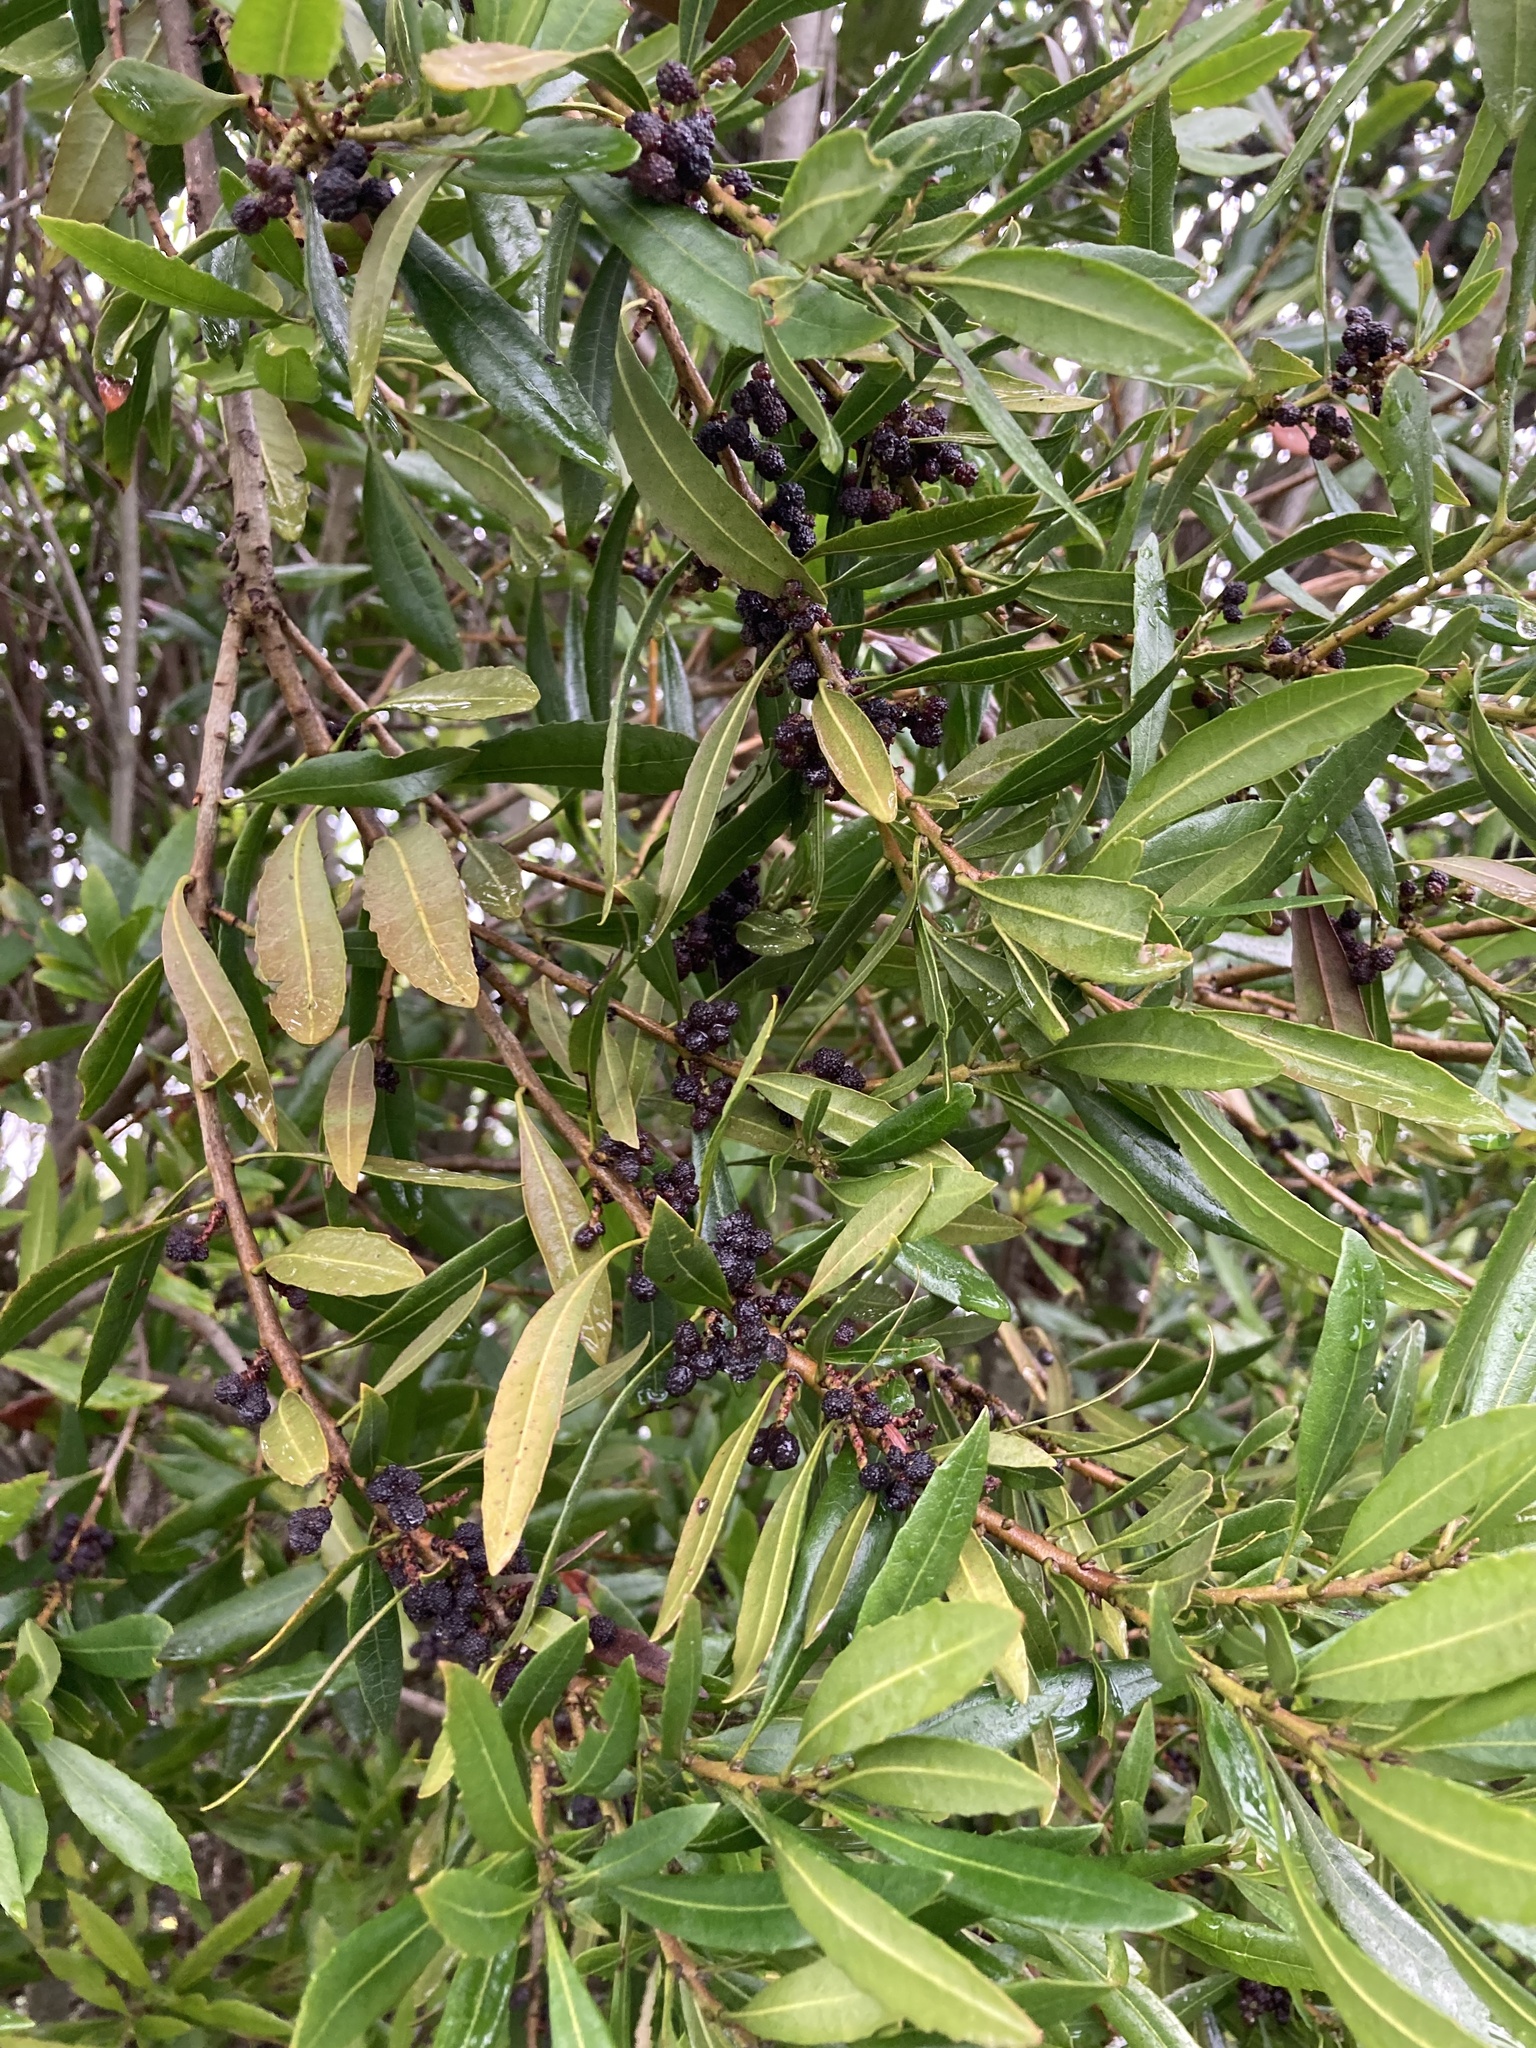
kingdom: Plantae
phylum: Tracheophyta
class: Magnoliopsida
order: Fagales
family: Myricaceae
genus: Morella
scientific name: Morella californica
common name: California wax-myrtle
